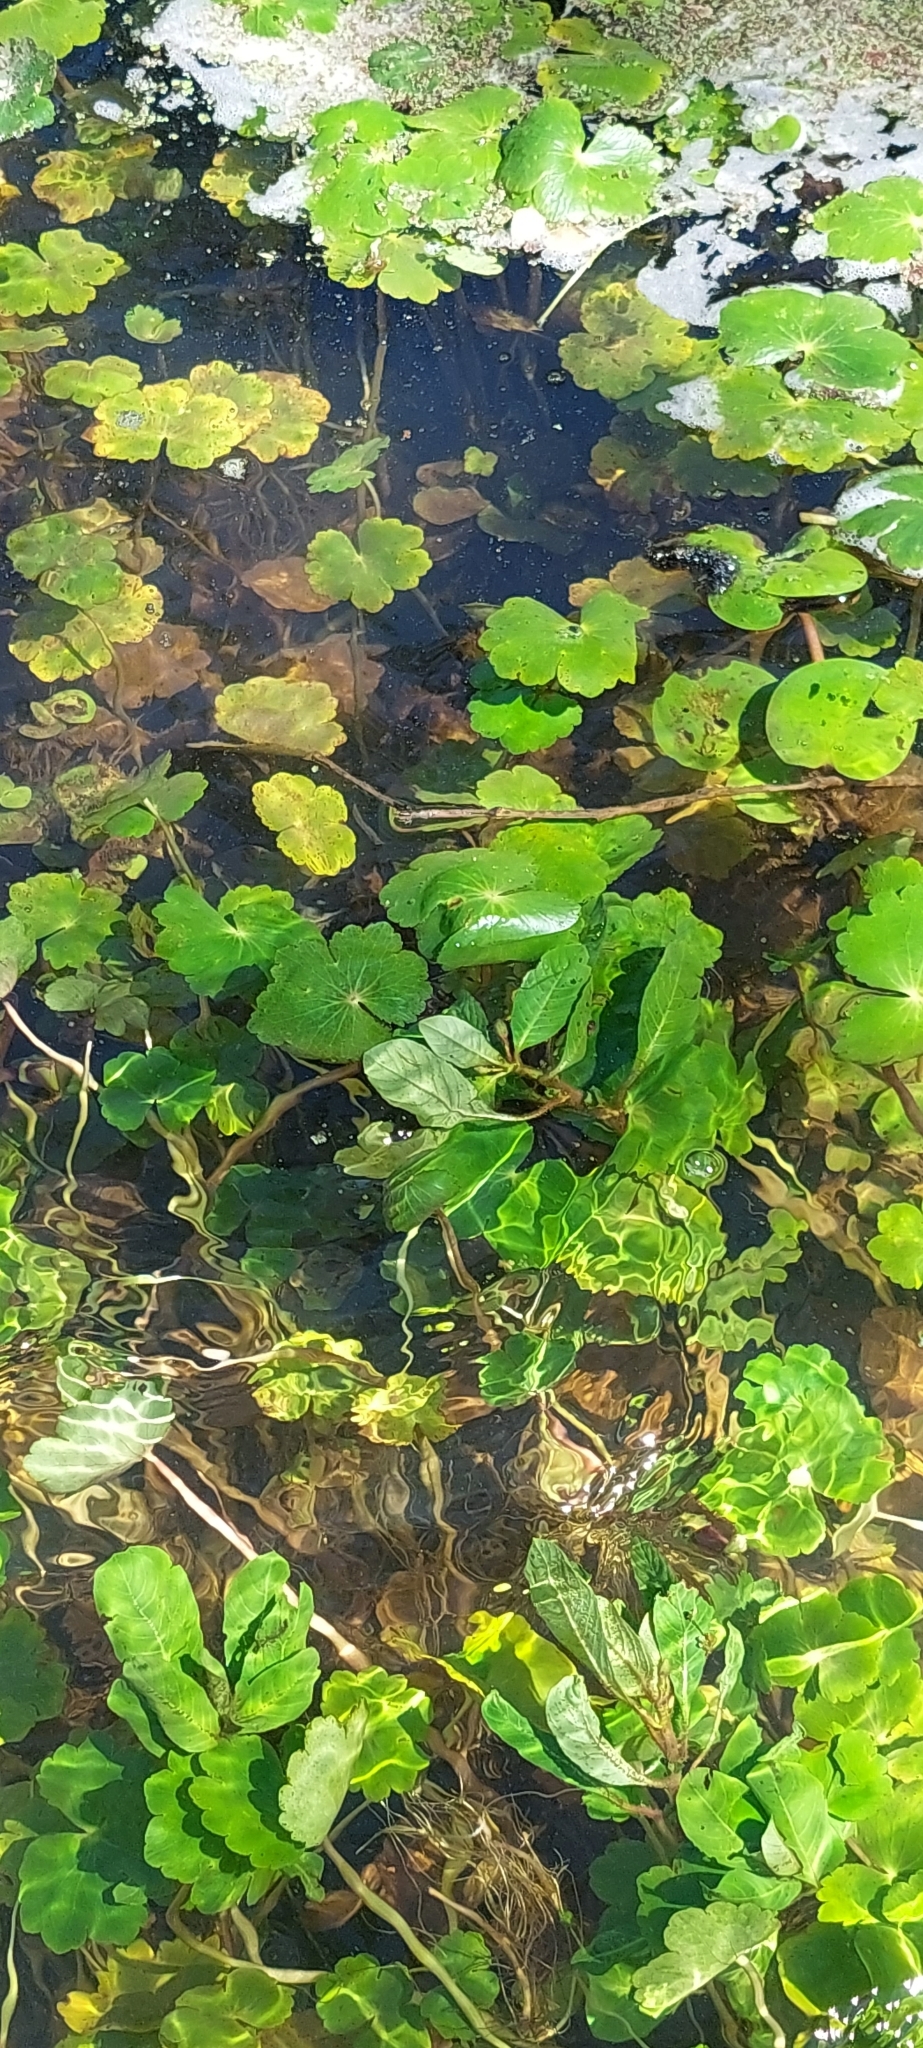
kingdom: Plantae
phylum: Tracheophyta
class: Magnoliopsida
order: Apiales
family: Araliaceae
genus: Hydrocotyle
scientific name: Hydrocotyle ranunculoides
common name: Floating pennywort
